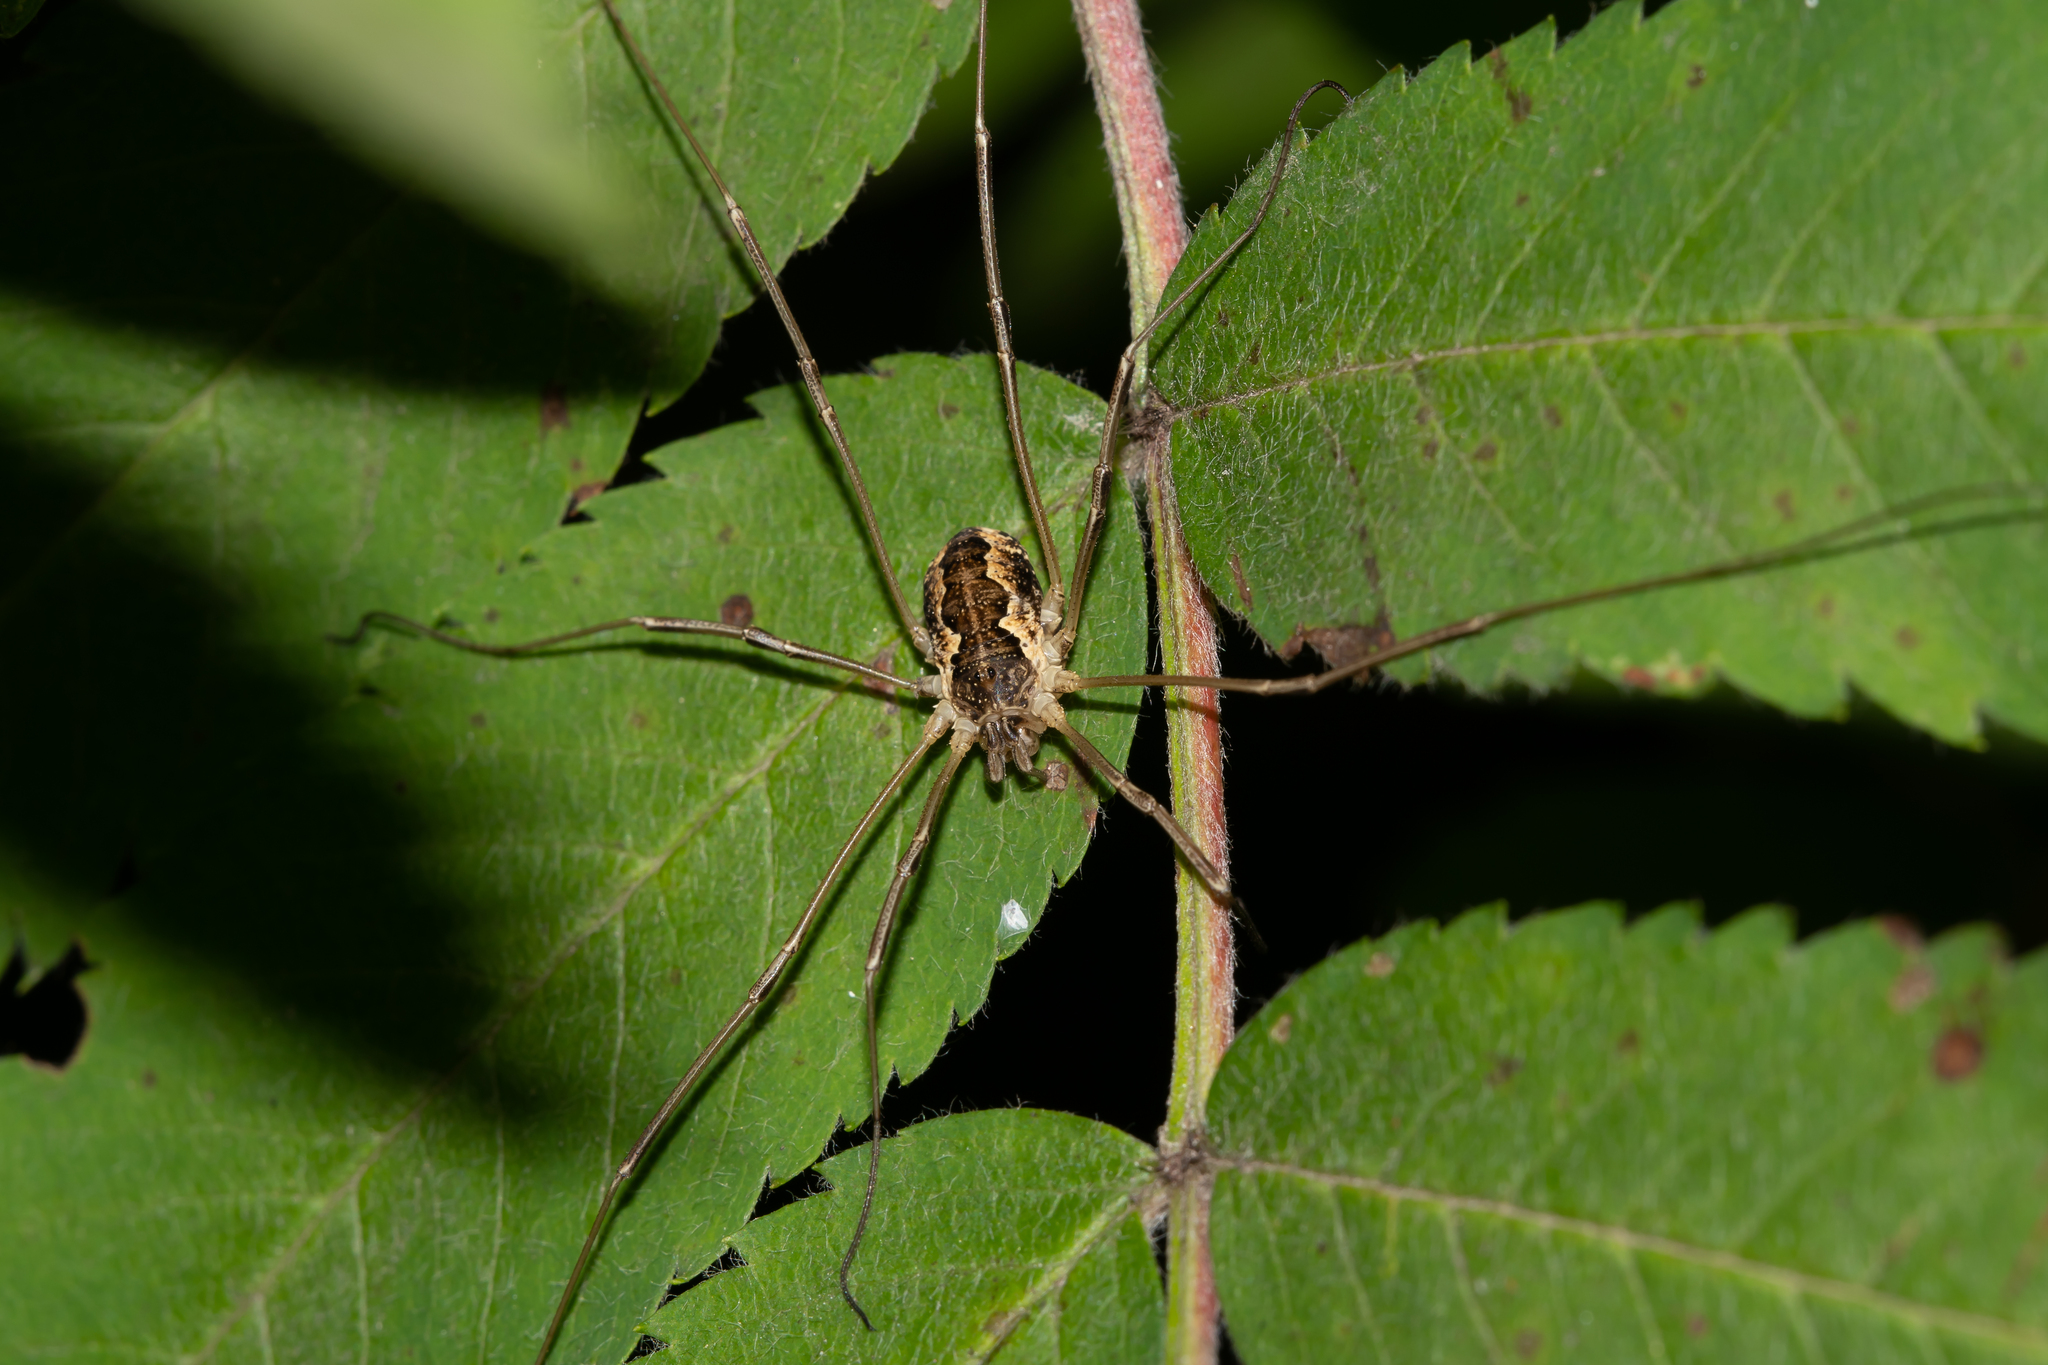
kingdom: Animalia
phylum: Arthropoda
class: Arachnida
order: Opiliones
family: Phalangiidae
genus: Mitopus
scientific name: Mitopus morio
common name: Saddleback harvestman
